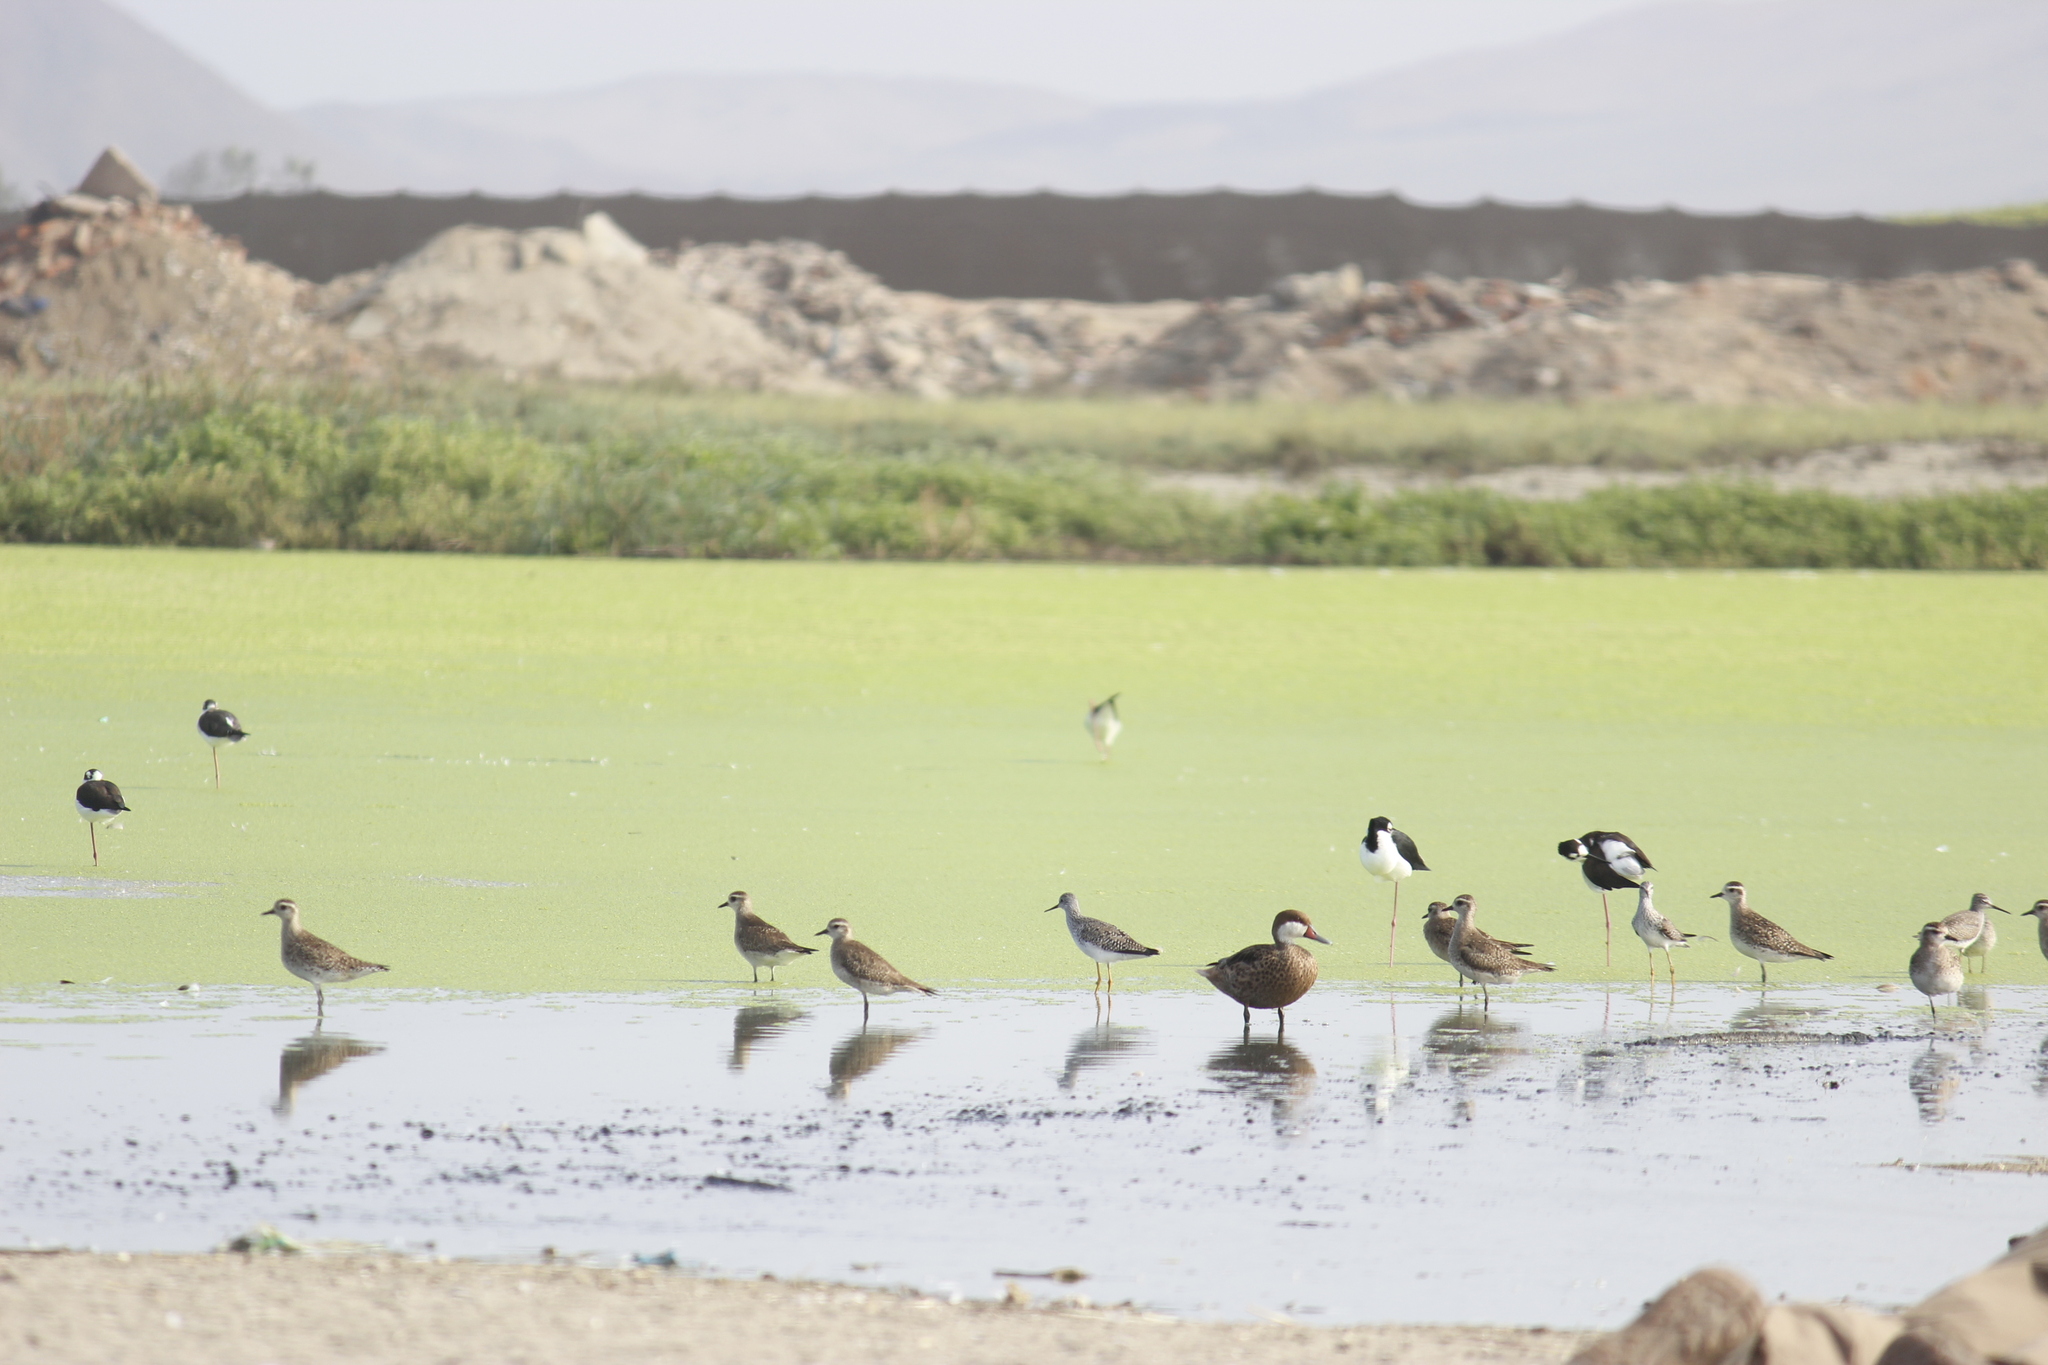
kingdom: Animalia
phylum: Chordata
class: Aves
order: Charadriiformes
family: Charadriidae
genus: Pluvialis
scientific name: Pluvialis dominica
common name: American golden plover
